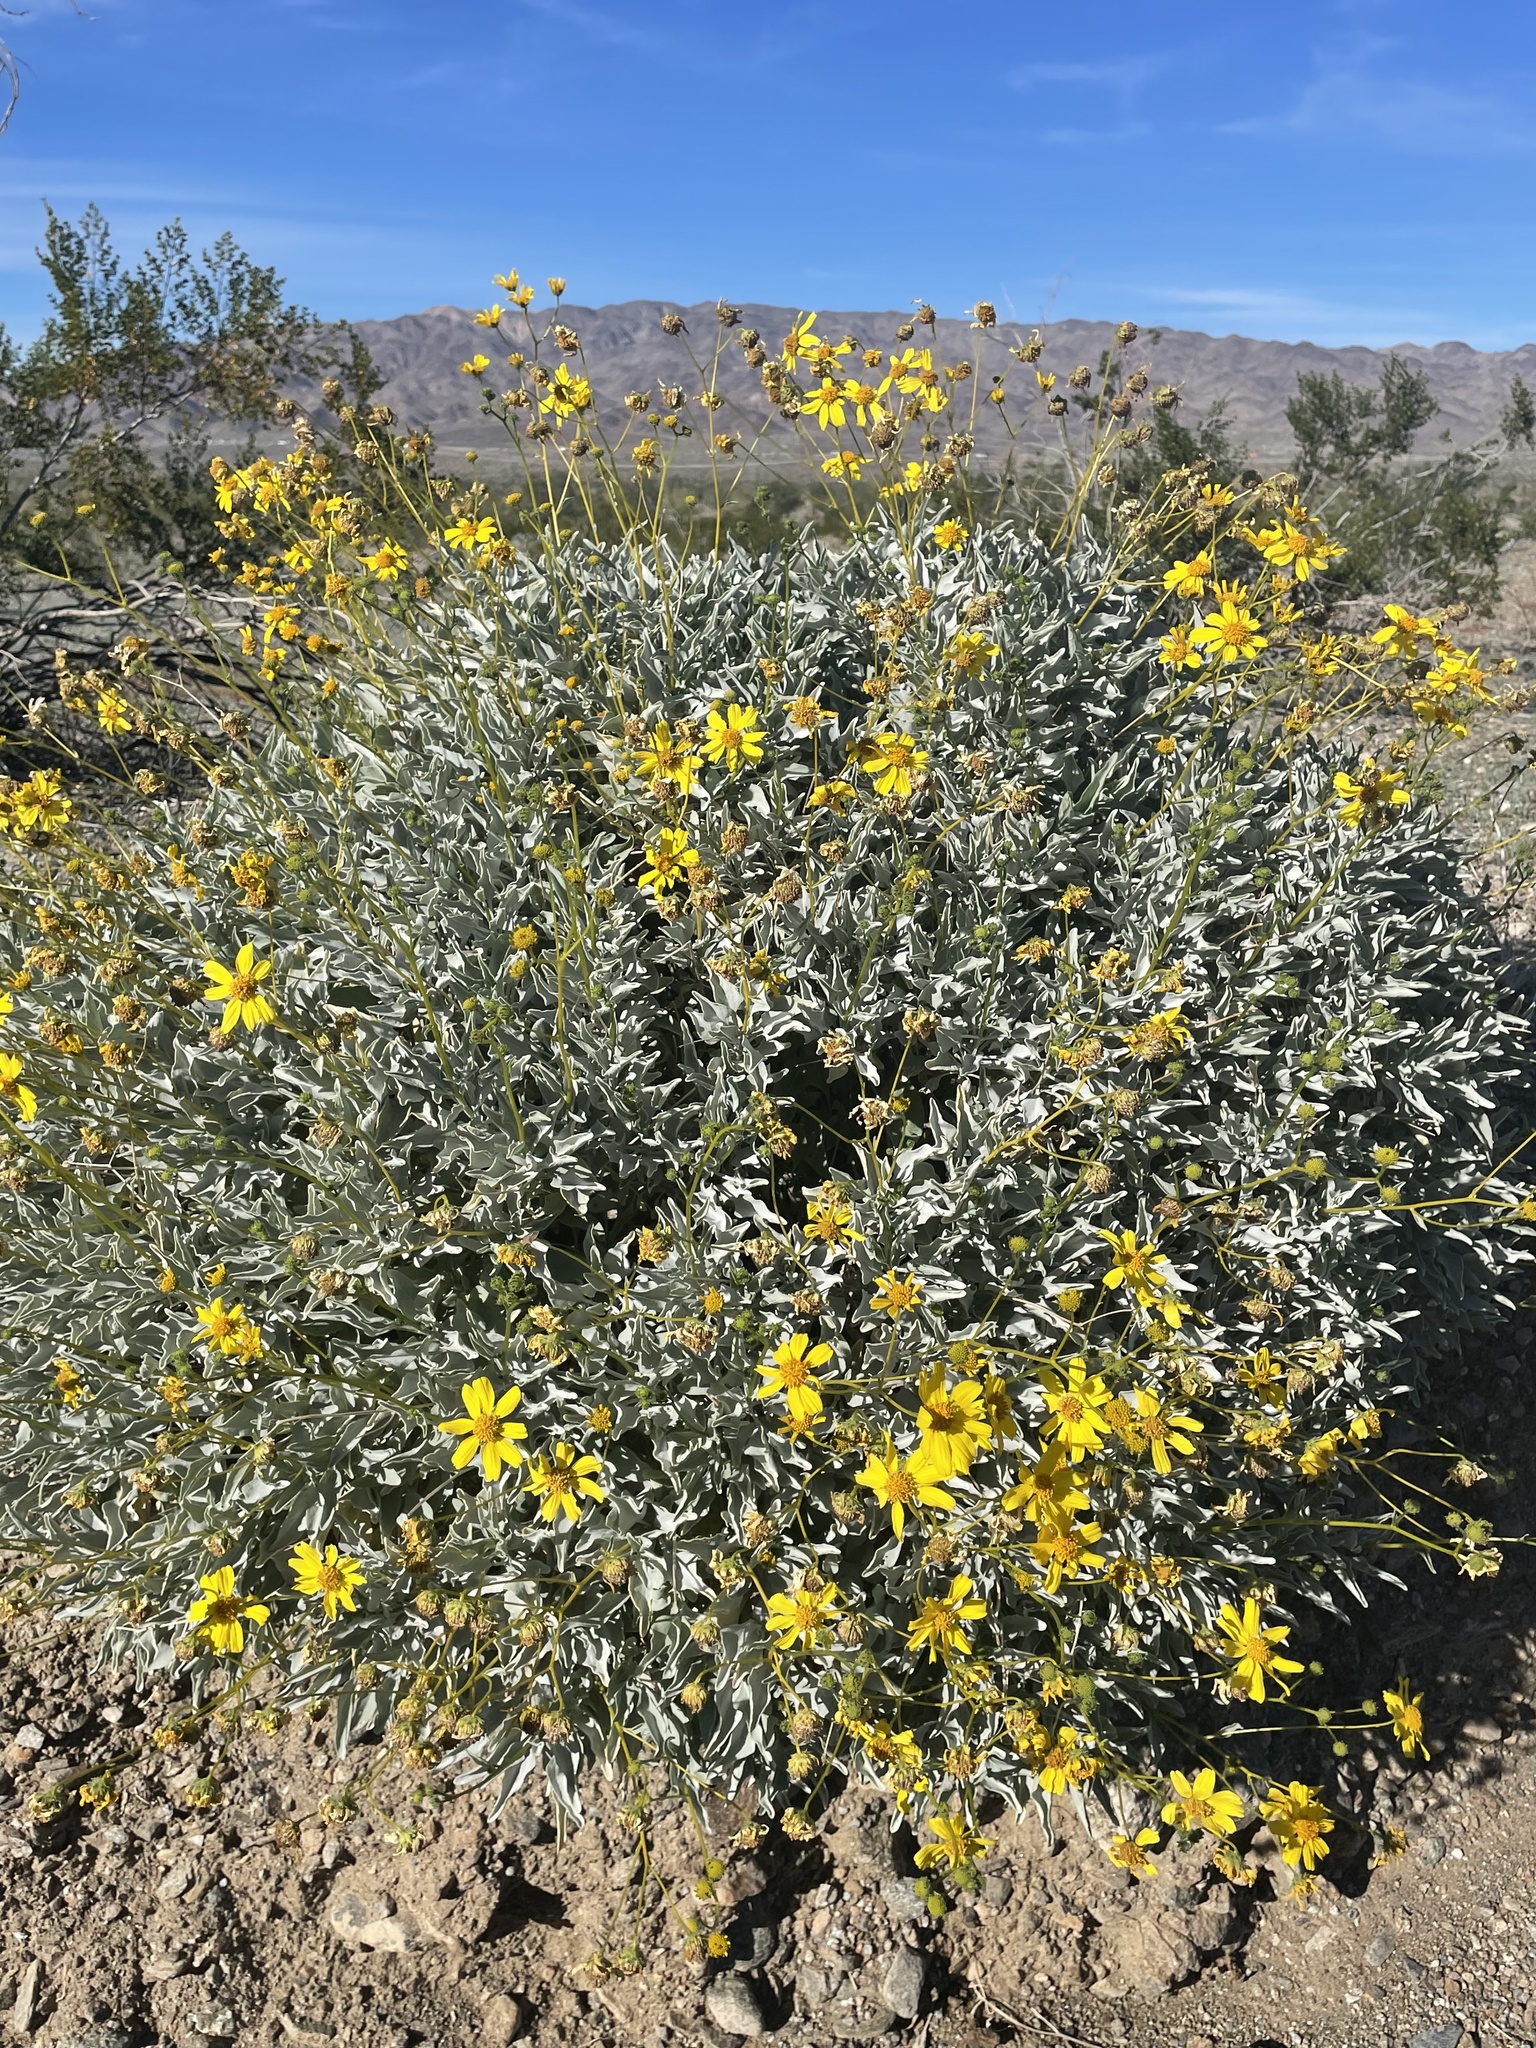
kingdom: Plantae
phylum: Tracheophyta
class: Magnoliopsida
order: Asterales
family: Asteraceae
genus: Encelia
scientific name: Encelia farinosa
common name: Brittlebush
